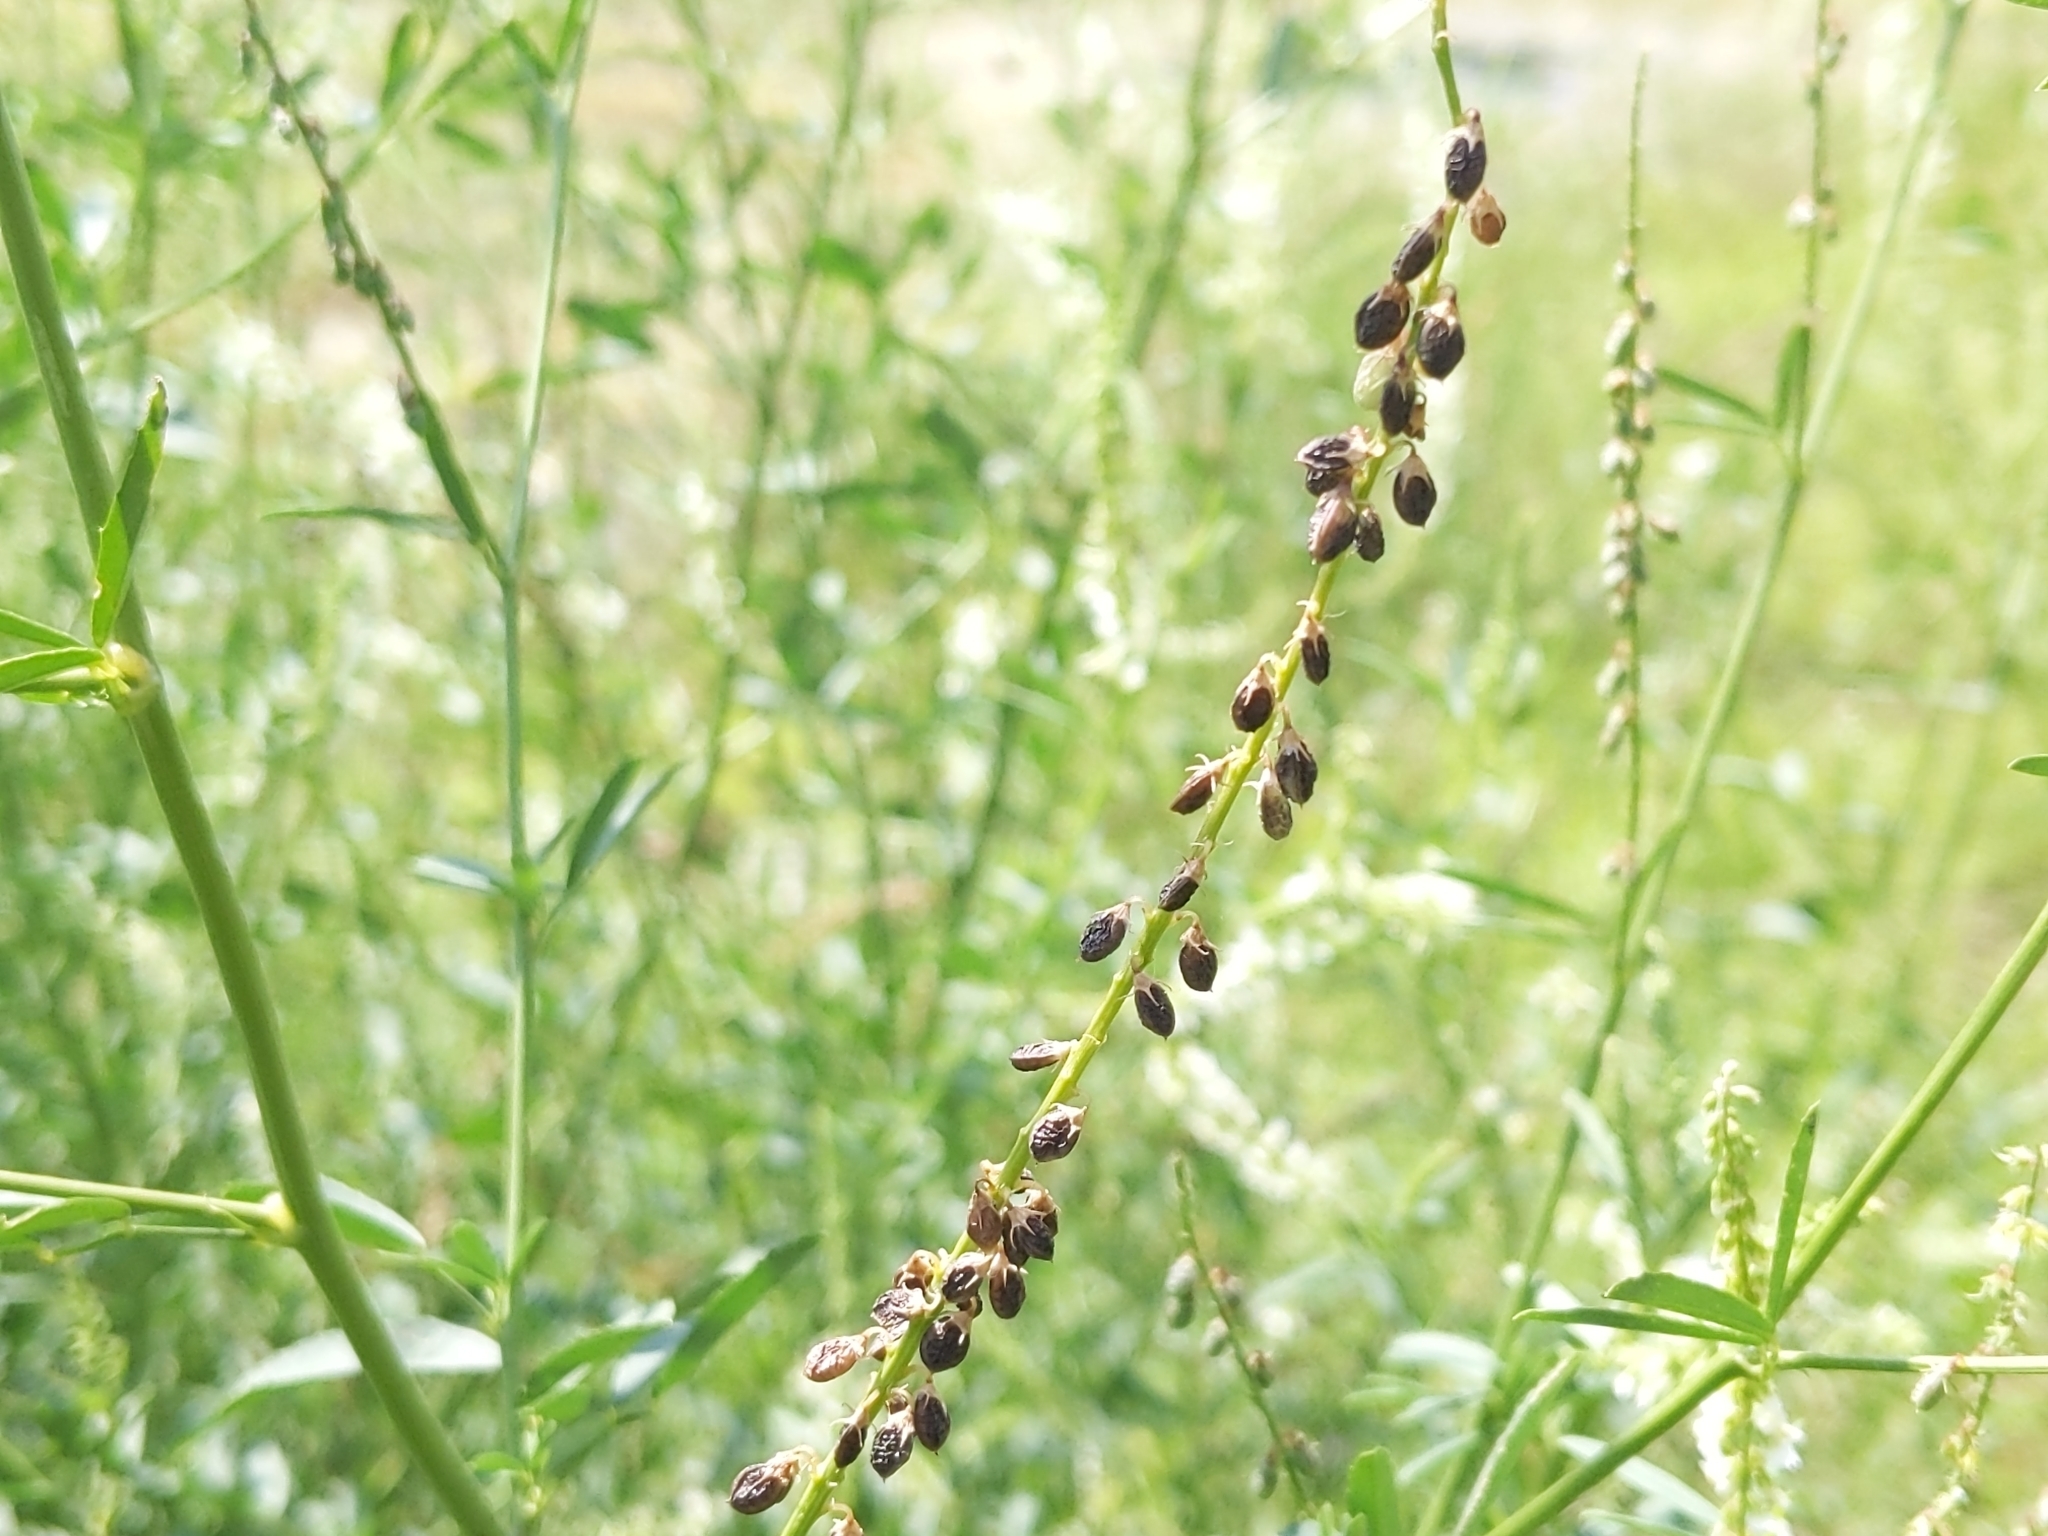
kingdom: Plantae
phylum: Tracheophyta
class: Magnoliopsida
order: Fabales
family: Fabaceae
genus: Melilotus
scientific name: Melilotus albus
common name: White melilot
